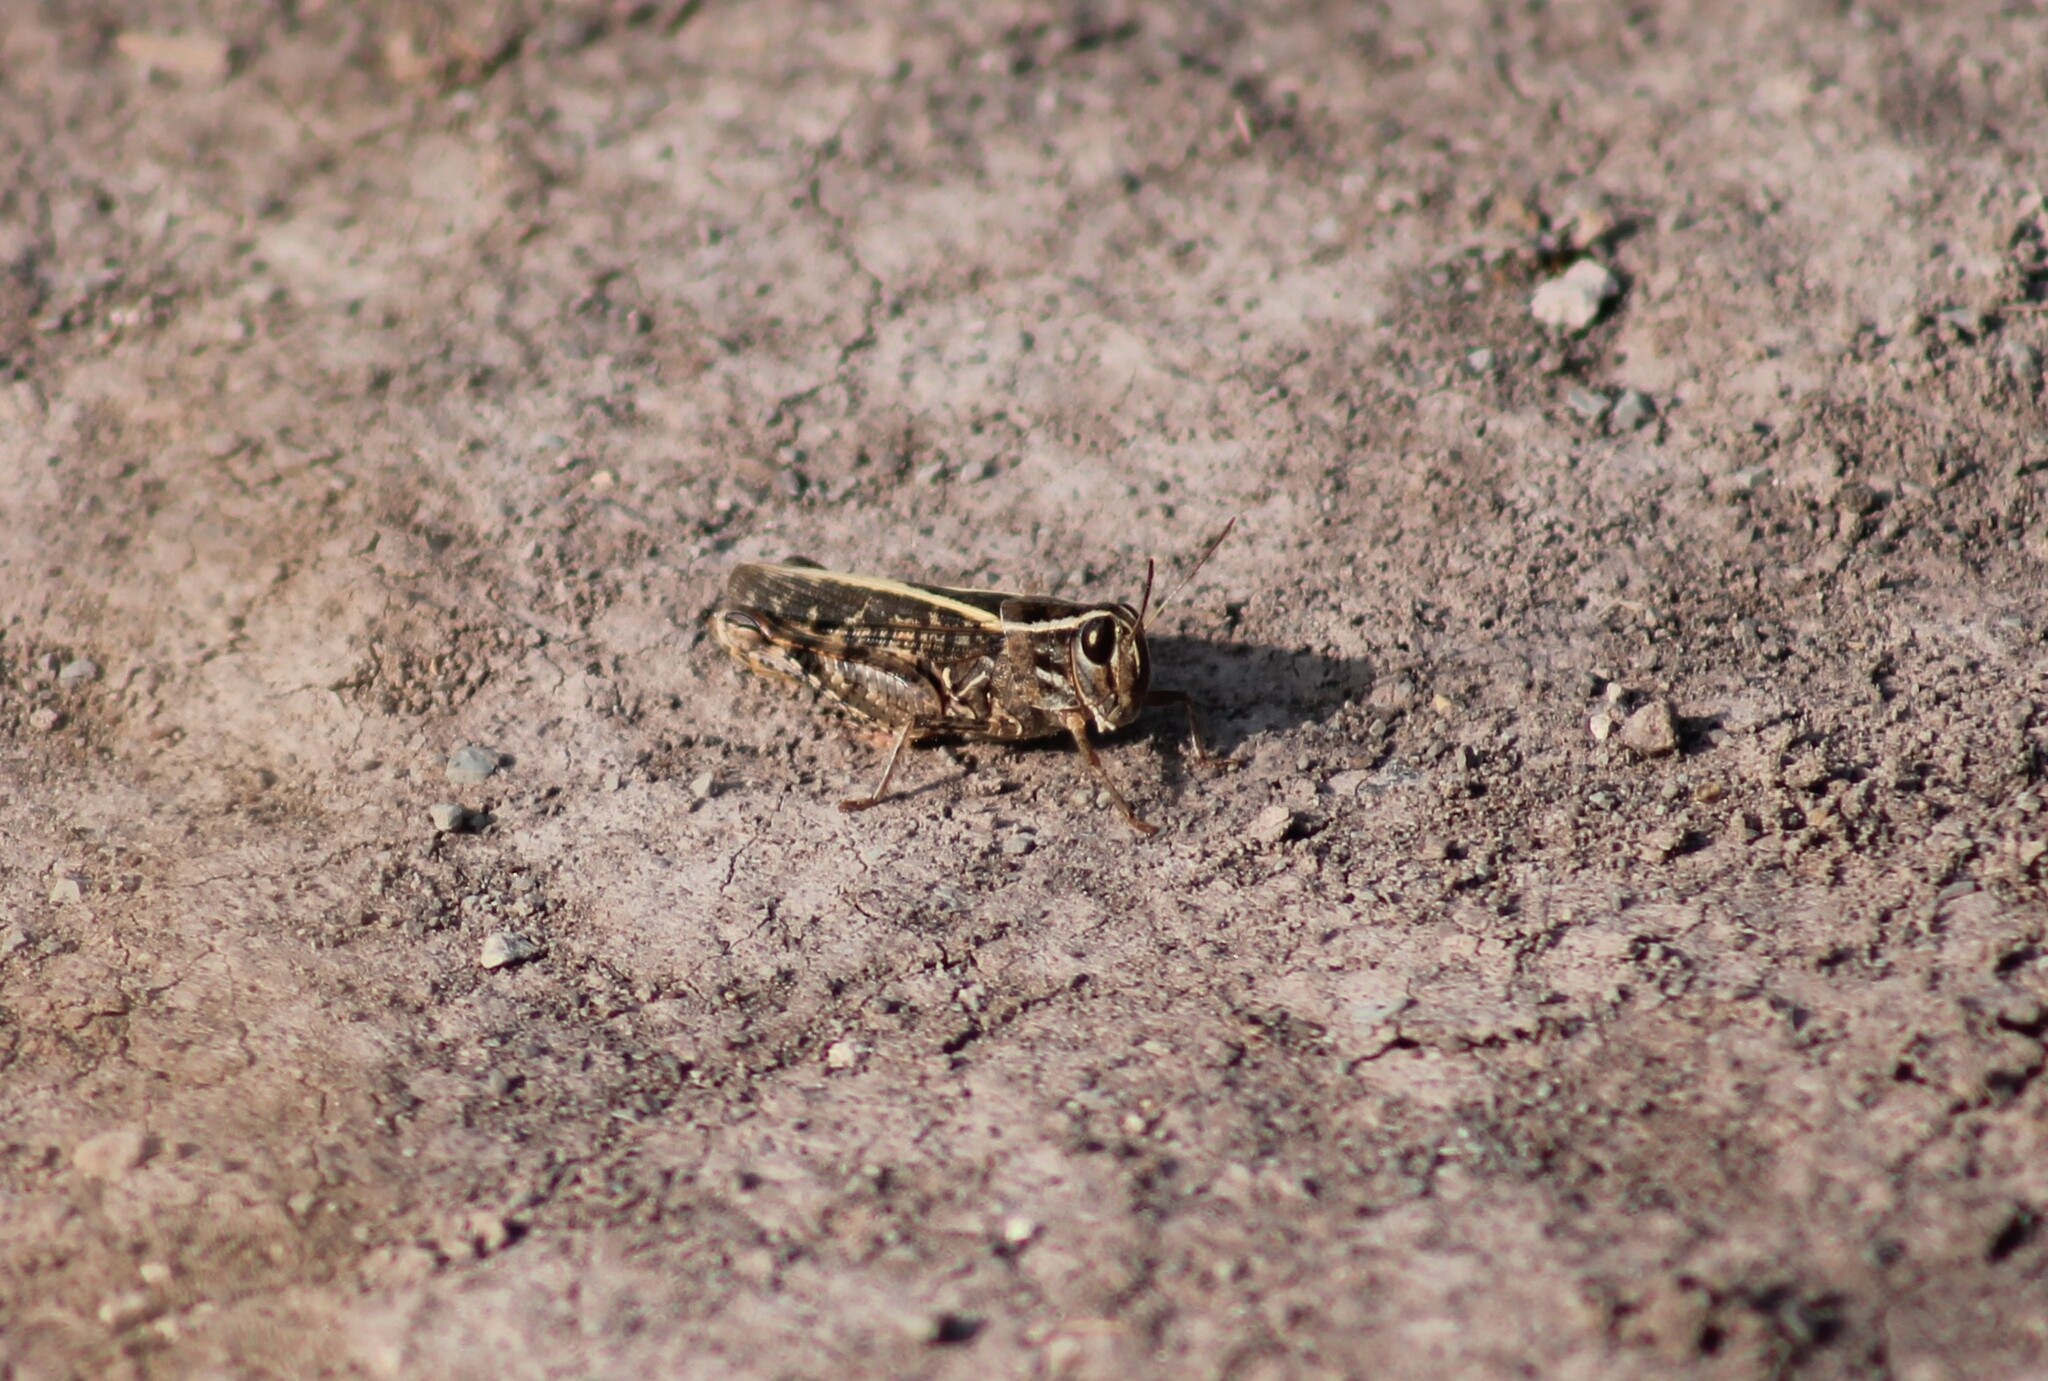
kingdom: Animalia
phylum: Arthropoda
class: Insecta
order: Orthoptera
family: Acrididae
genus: Calliptamus
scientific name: Calliptamus italicus
